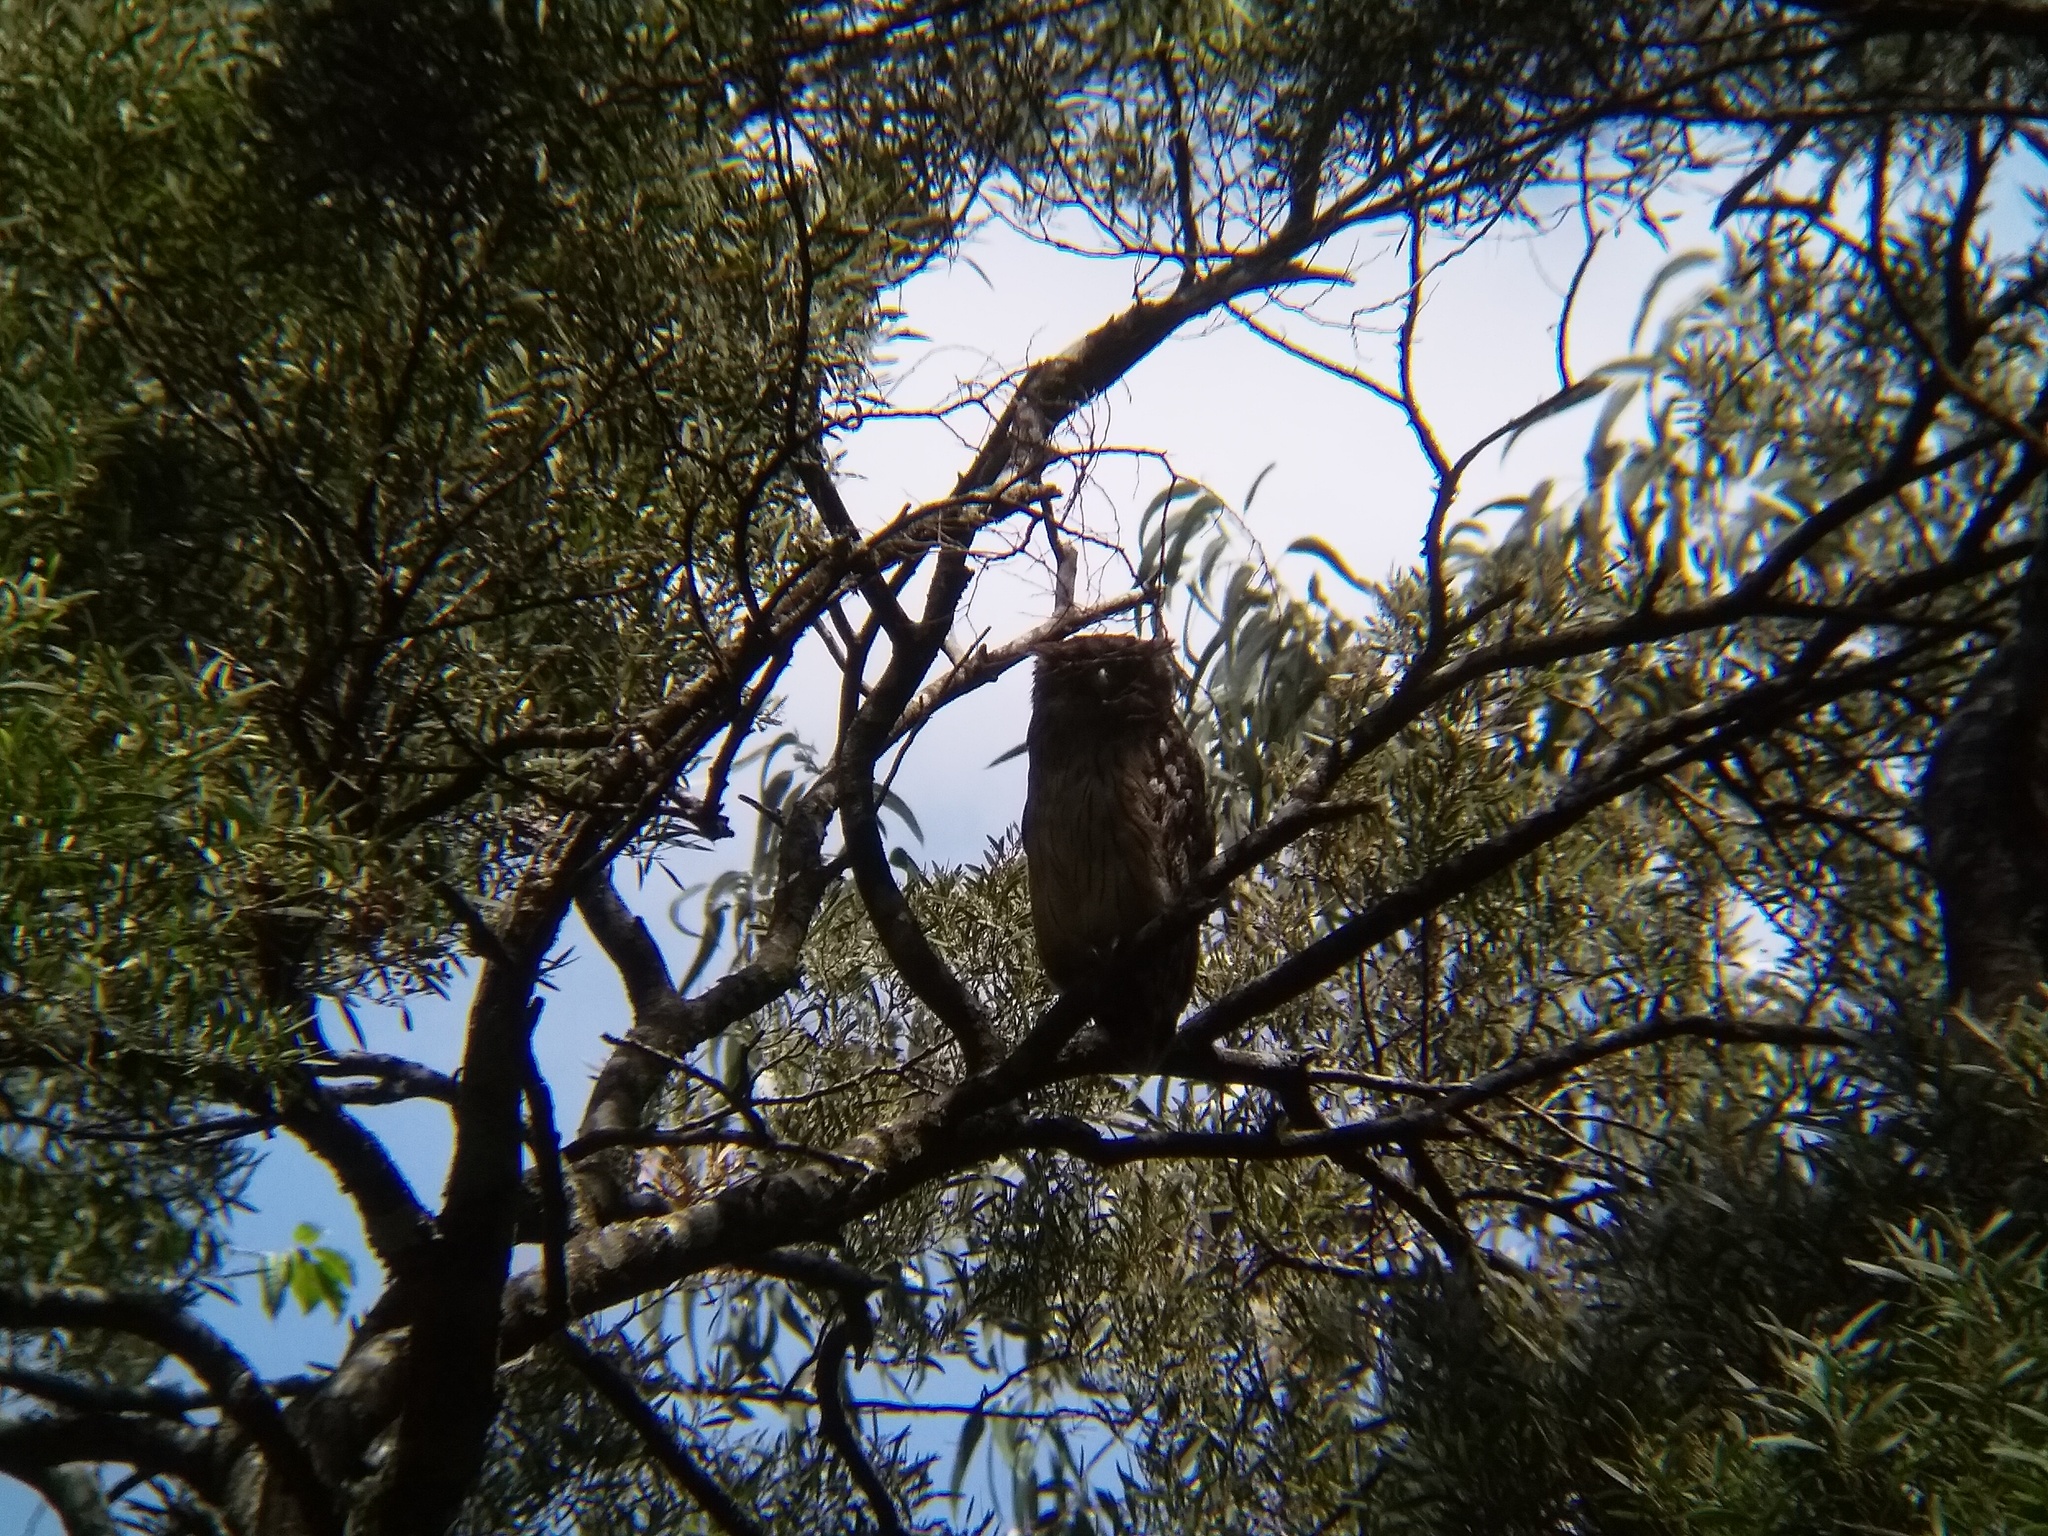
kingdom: Animalia
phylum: Chordata
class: Aves
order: Strigiformes
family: Strigidae
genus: Ketupa
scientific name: Ketupa zeylonensis
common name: Brown fish owl
